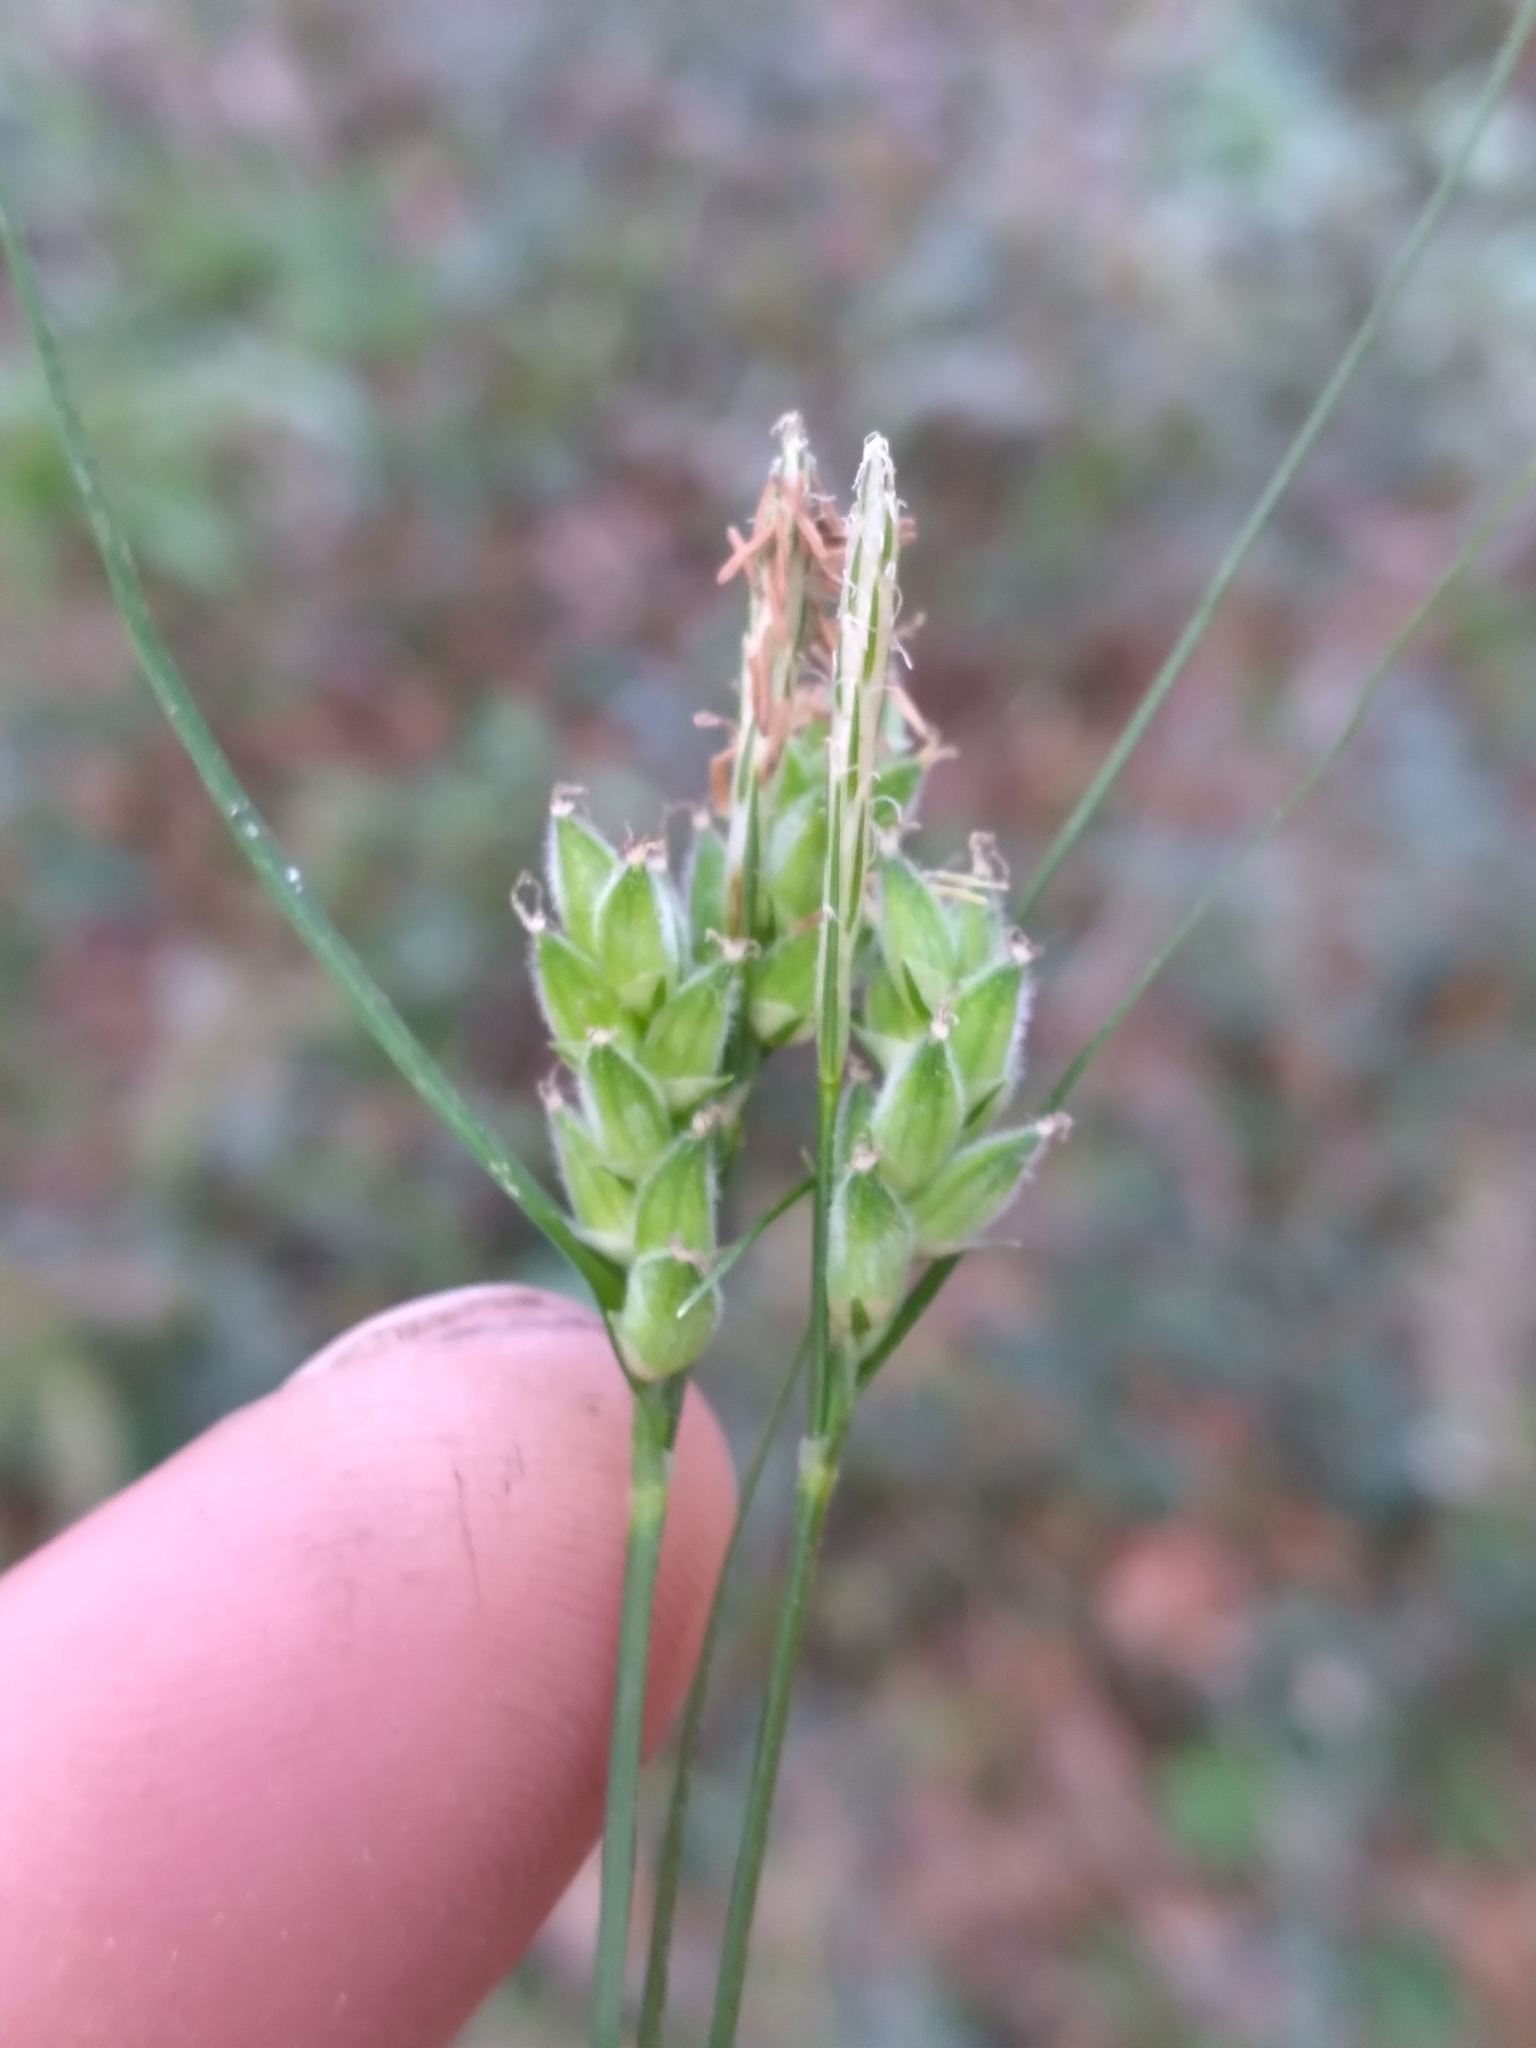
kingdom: Plantae
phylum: Tracheophyta
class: Liliopsida
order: Poales
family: Cyperaceae
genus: Carex
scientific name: Carex dasycarpa
